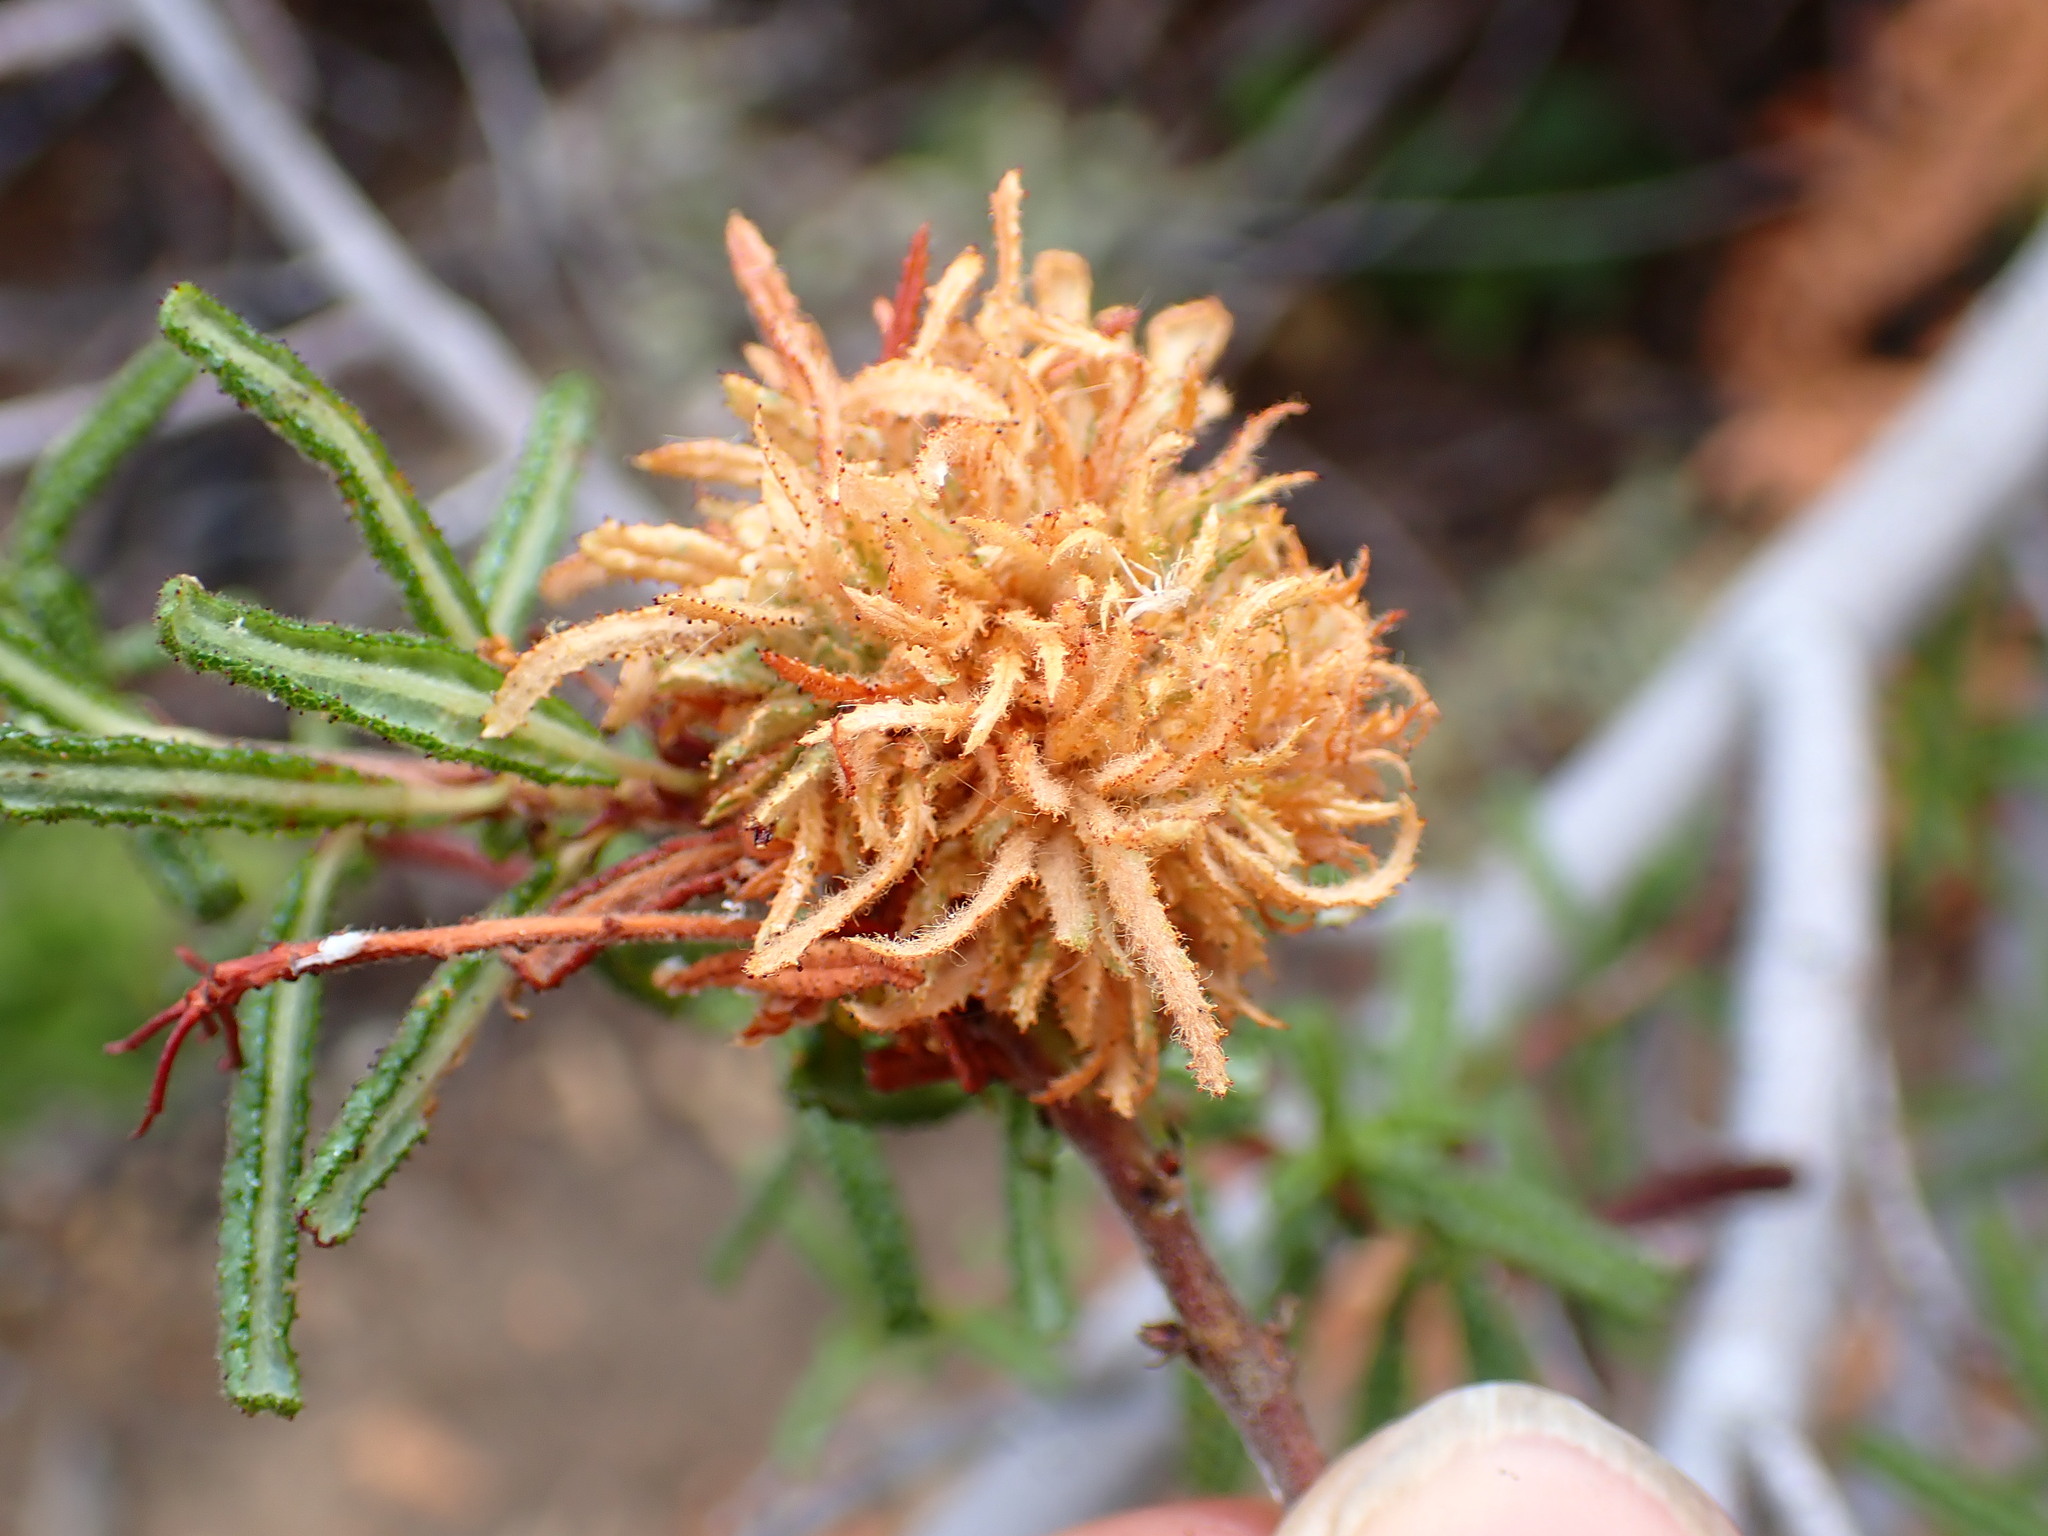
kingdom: Animalia
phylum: Arthropoda
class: Insecta
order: Diptera
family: Cecidomyiidae
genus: Asphondylia
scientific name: Asphondylia ceanothi
